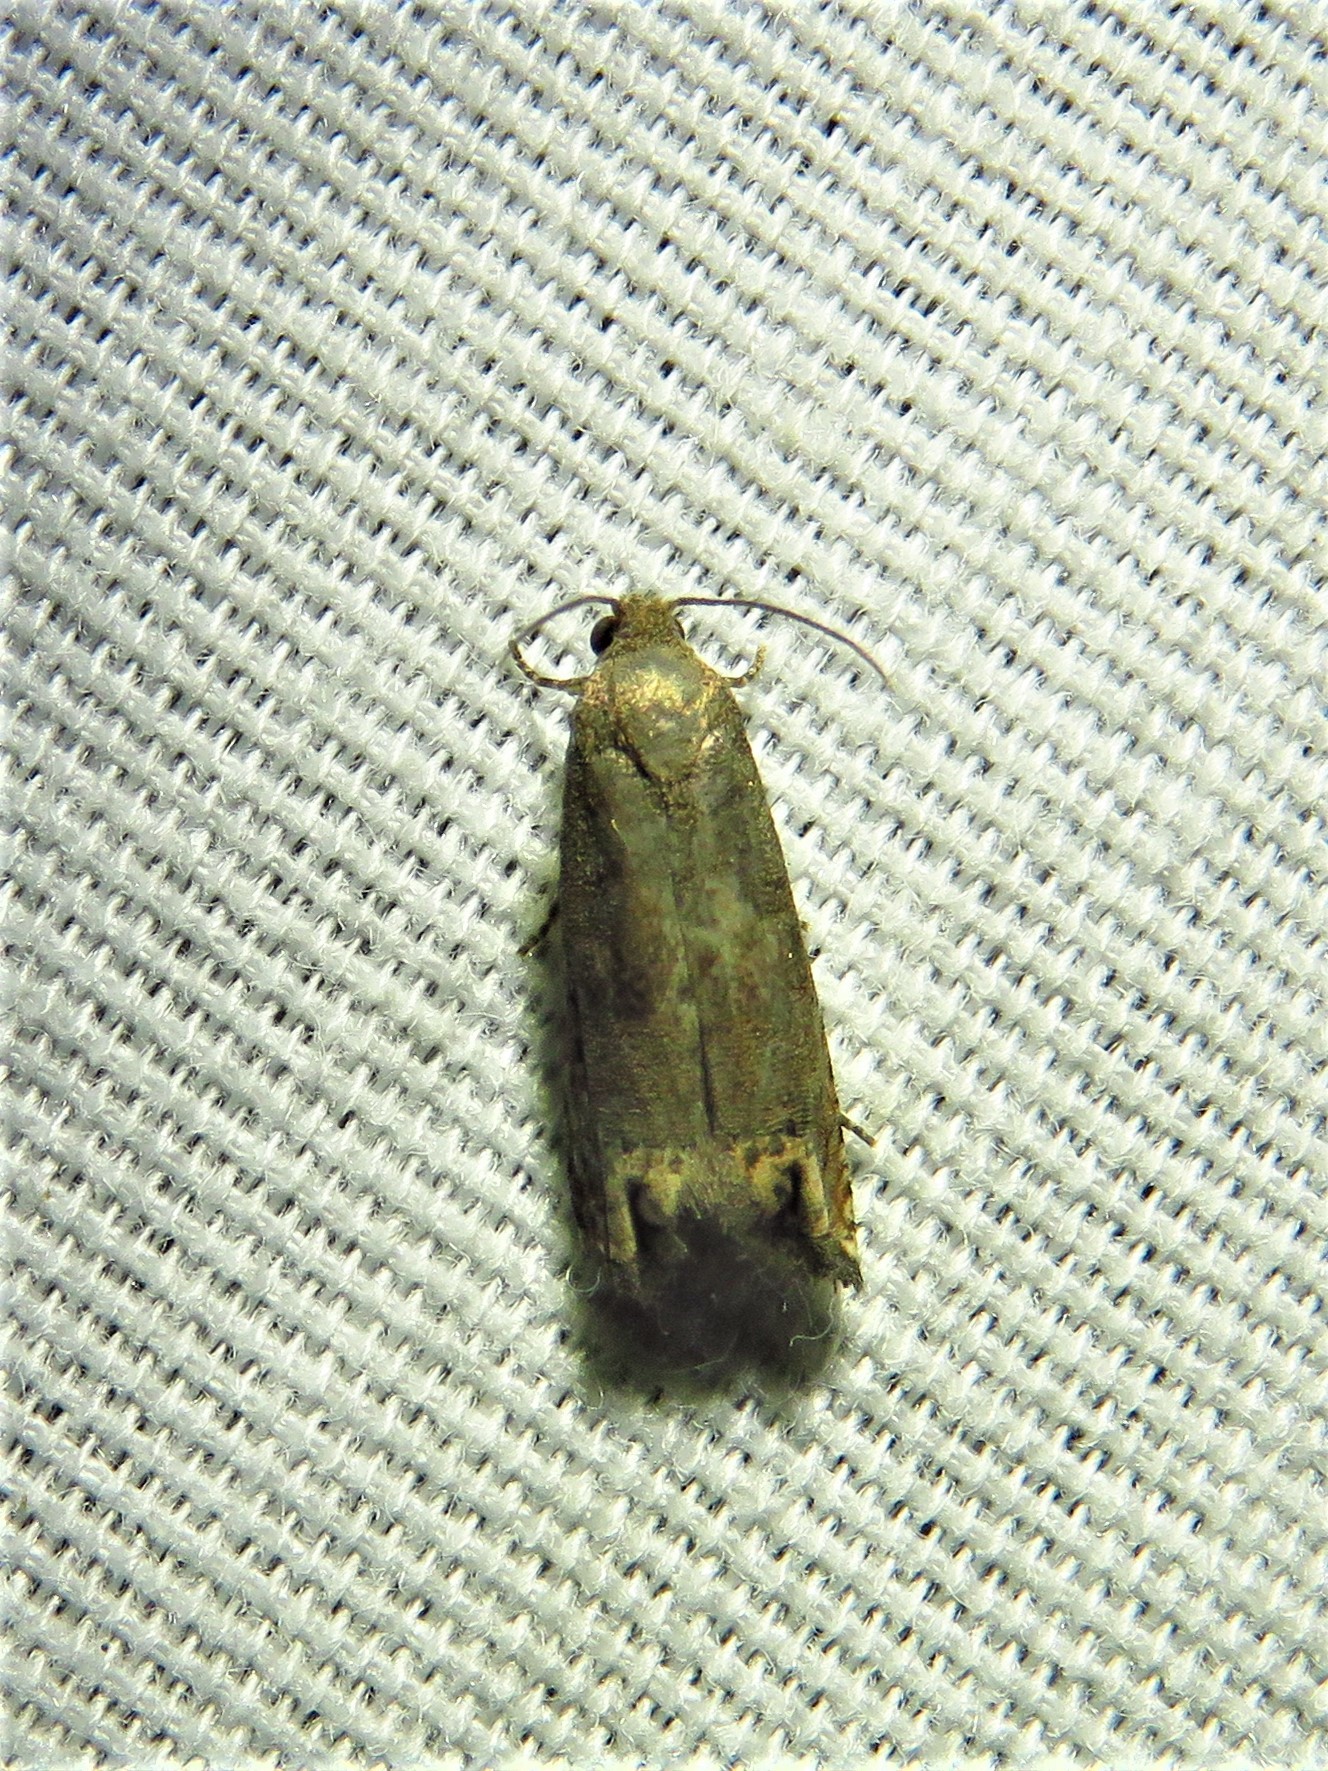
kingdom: Animalia
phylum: Arthropoda
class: Insecta
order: Lepidoptera
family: Tortricidae
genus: Epiblema
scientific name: Epiblema strenuana
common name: Ragweed borer moth
